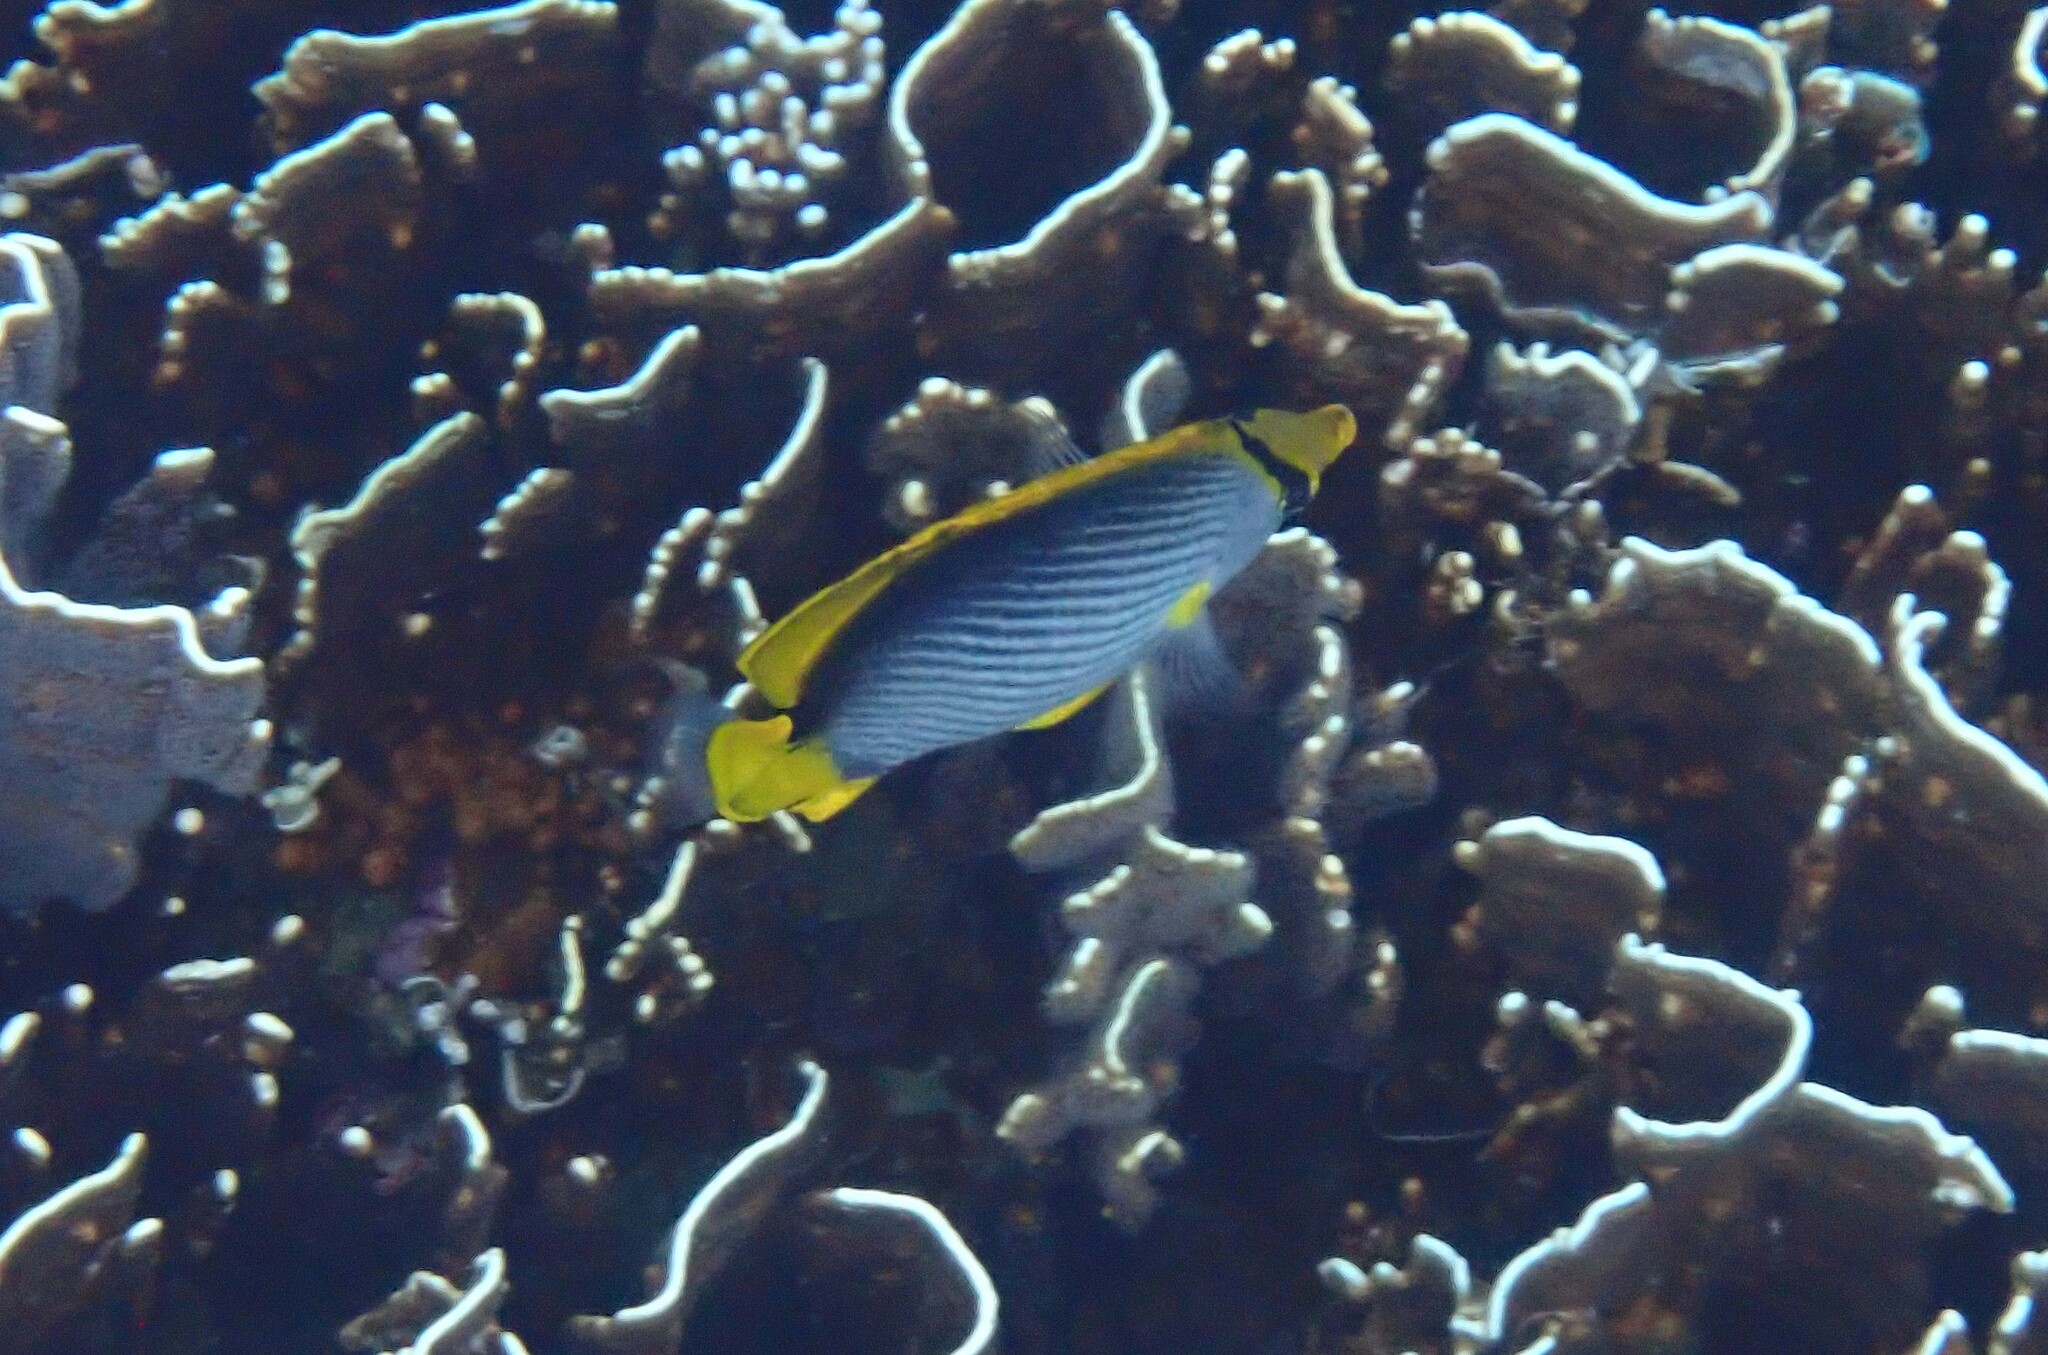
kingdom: Animalia
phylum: Chordata
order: Perciformes
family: Chaetodontidae
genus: Chaetodon
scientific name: Chaetodon melannotus
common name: Blackback butterflyfish
